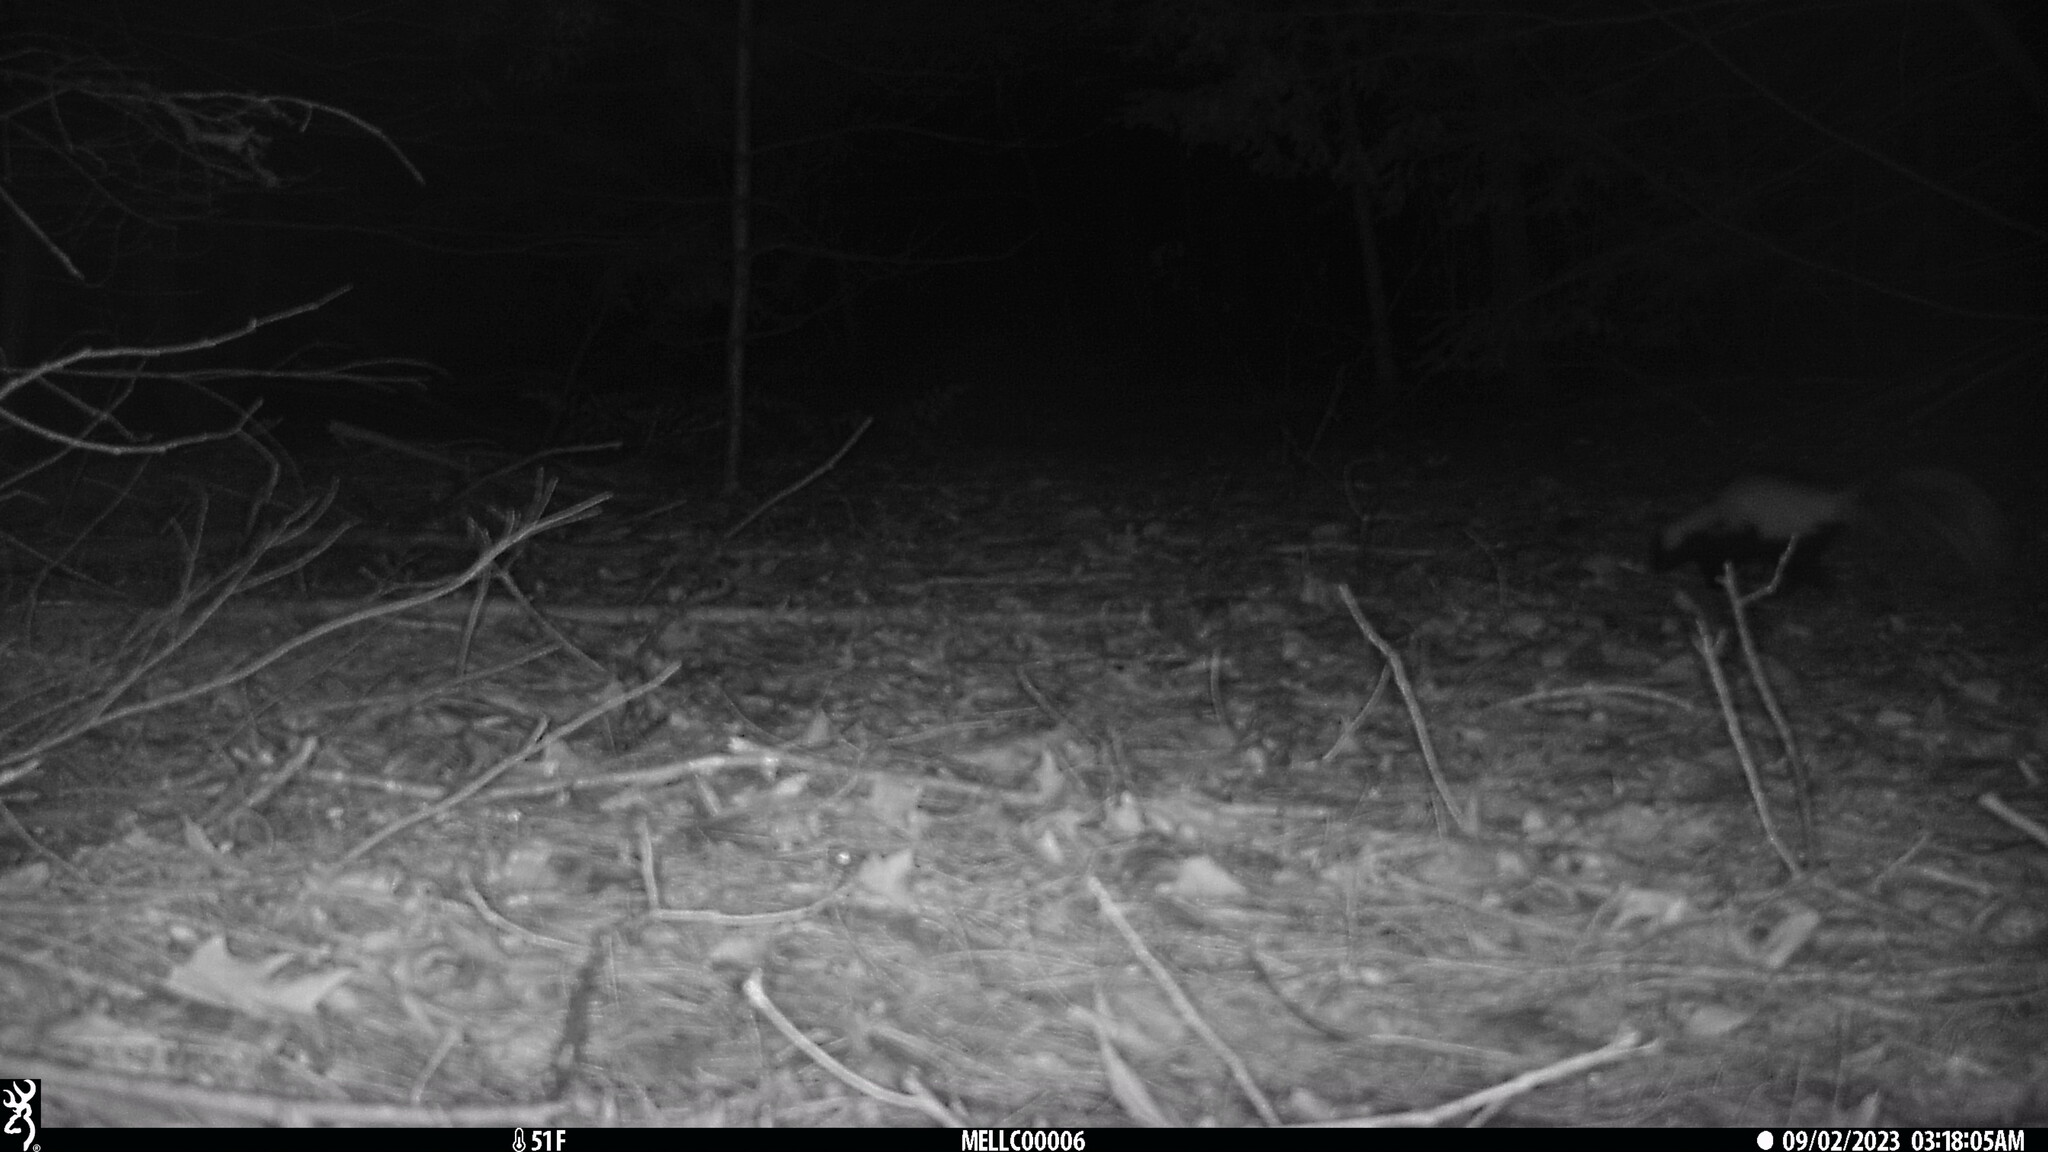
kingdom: Animalia
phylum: Chordata
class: Mammalia
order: Carnivora
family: Mephitidae
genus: Mephitis
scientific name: Mephitis mephitis
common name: Striped skunk
